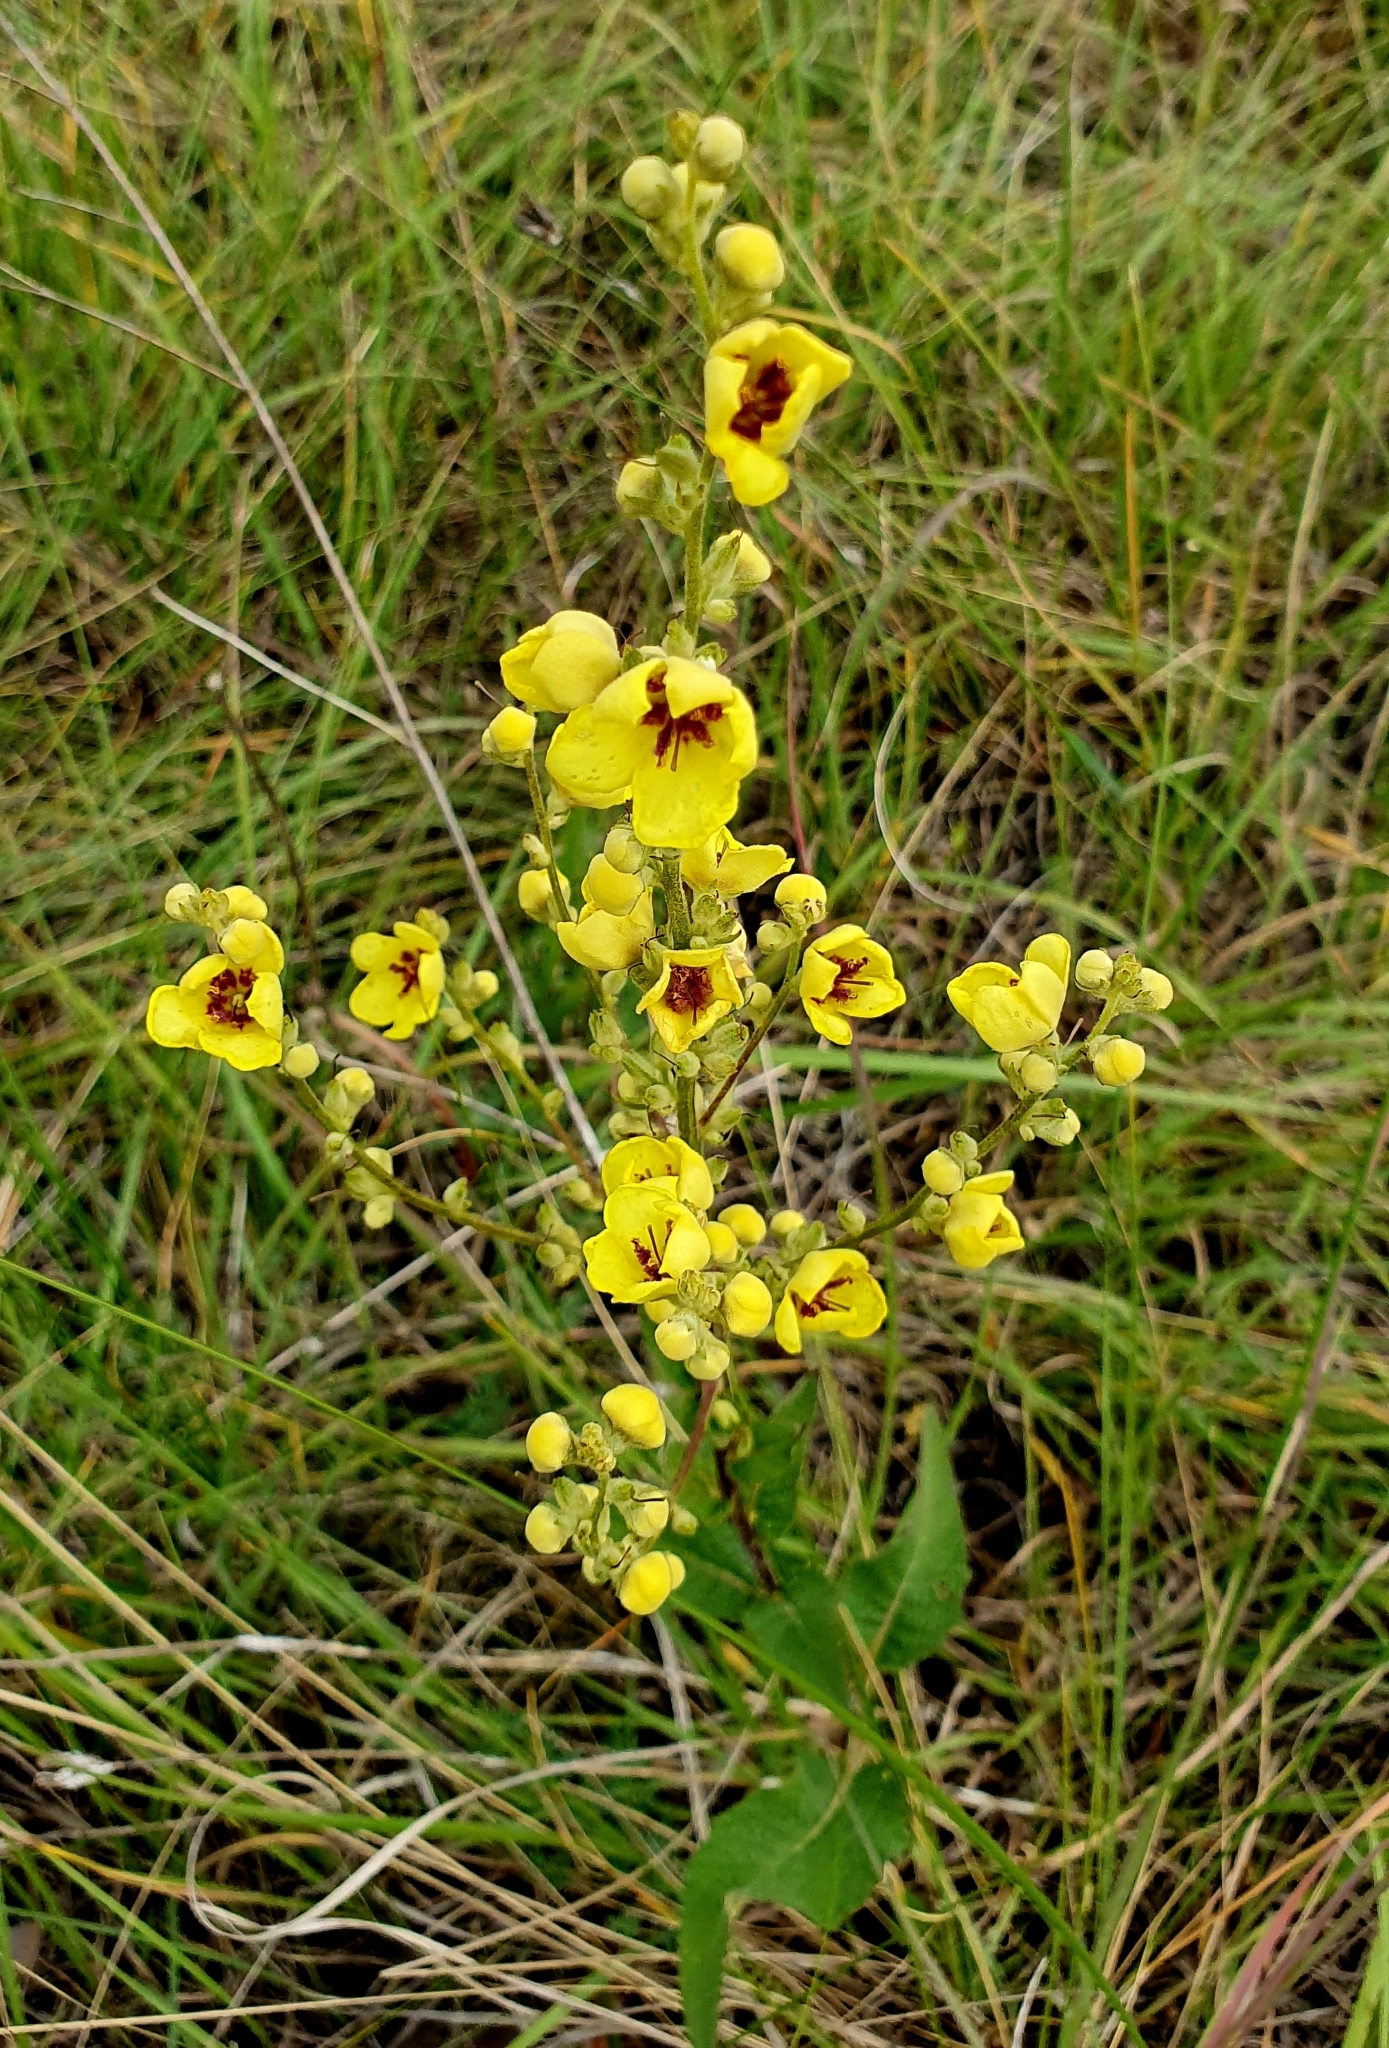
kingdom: Plantae
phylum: Tracheophyta
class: Magnoliopsida
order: Lamiales
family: Scrophulariaceae
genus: Verbascum
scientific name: Verbascum chaixii
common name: Nettle-leaved mullein
